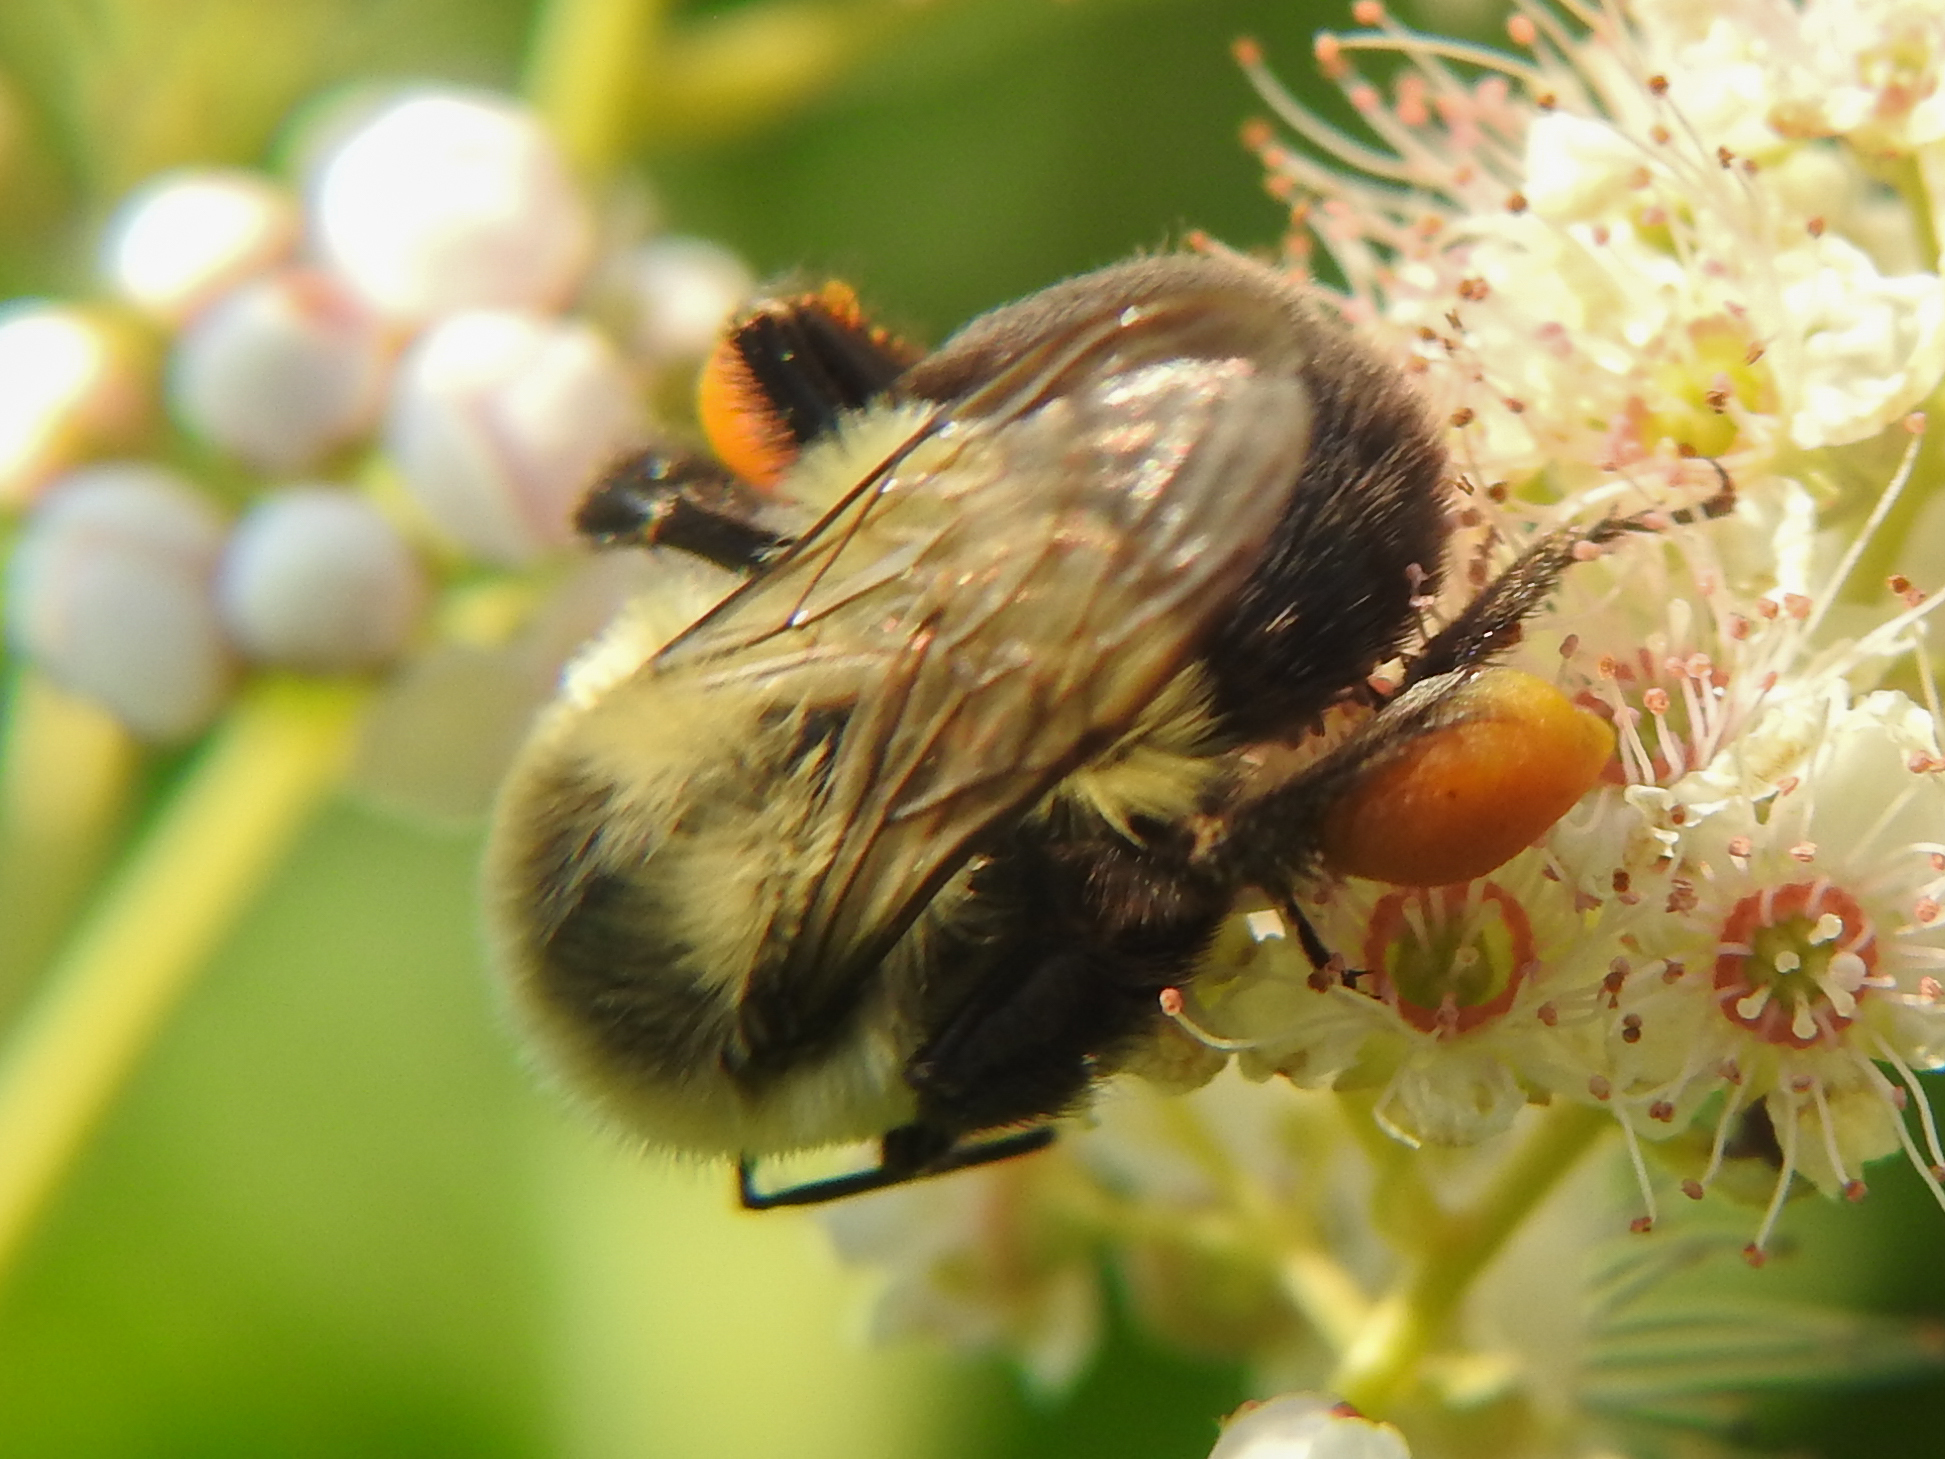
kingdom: Animalia
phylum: Arthropoda
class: Insecta
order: Hymenoptera
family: Apidae
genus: Bombus
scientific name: Bombus impatiens
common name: Common eastern bumble bee
